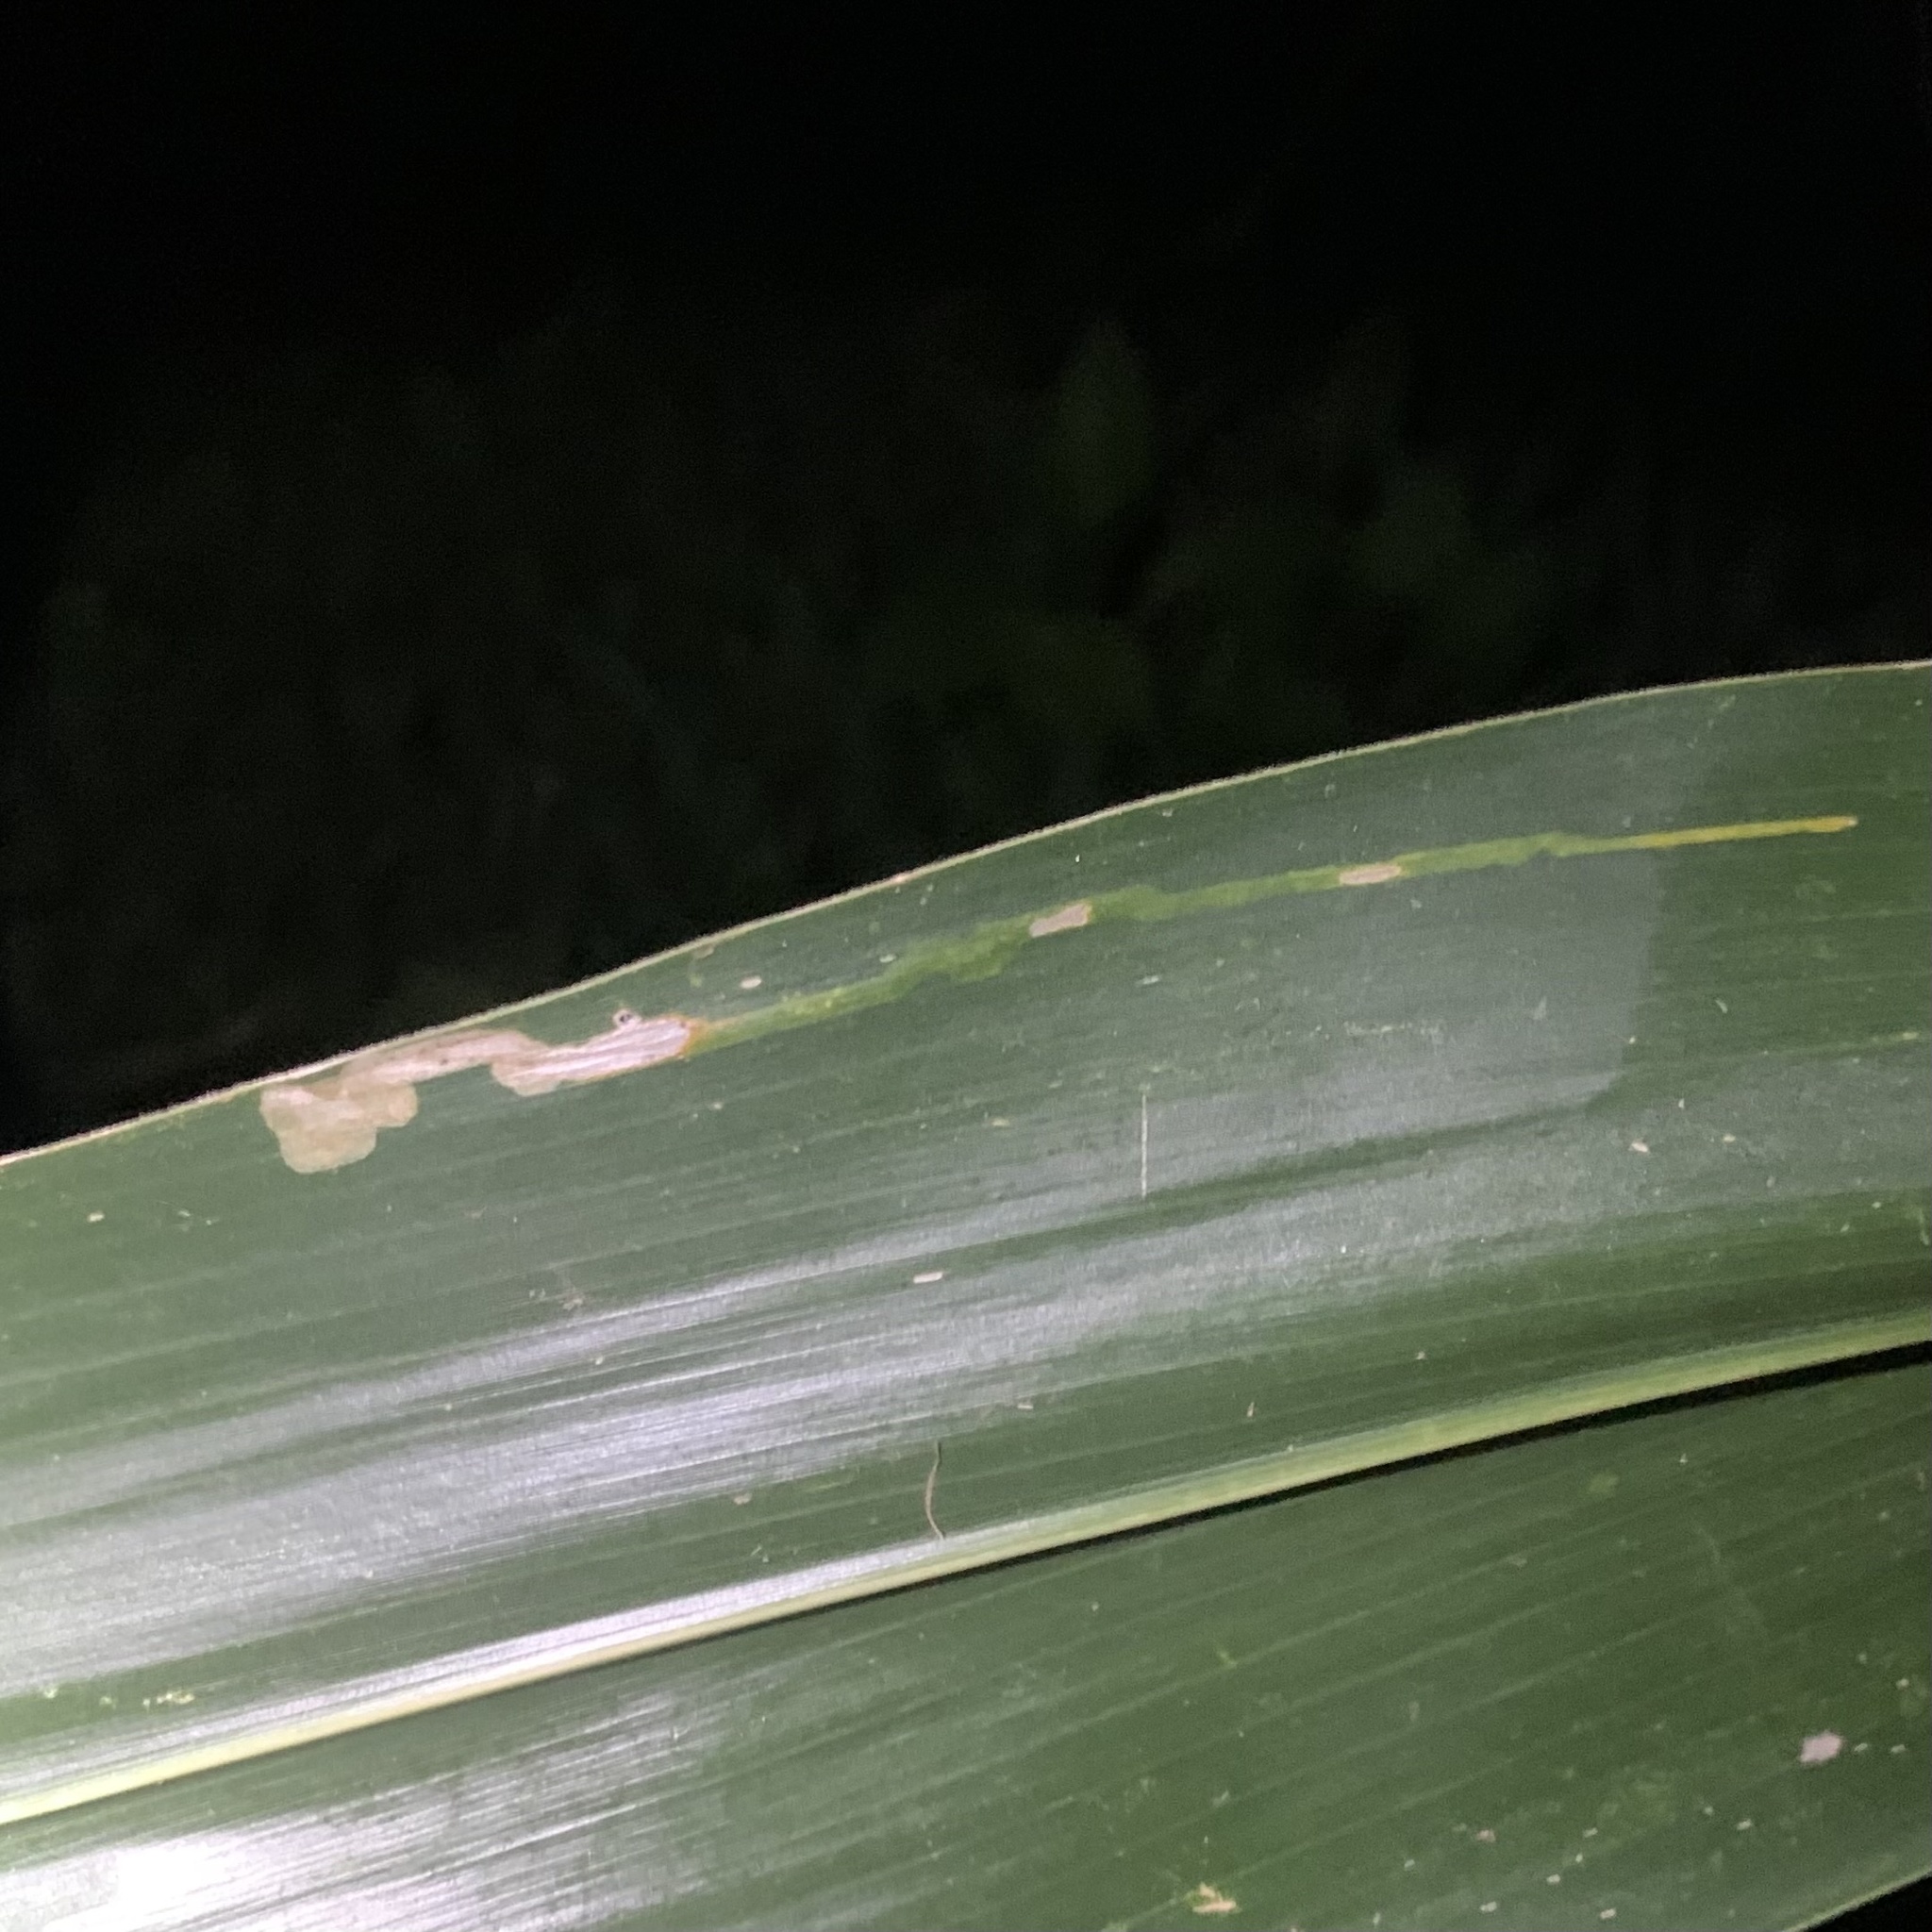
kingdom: Animalia
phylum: Arthropoda
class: Insecta
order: Diptera
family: Agromyzidae
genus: Agromyza
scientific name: Agromyza parvicornis
